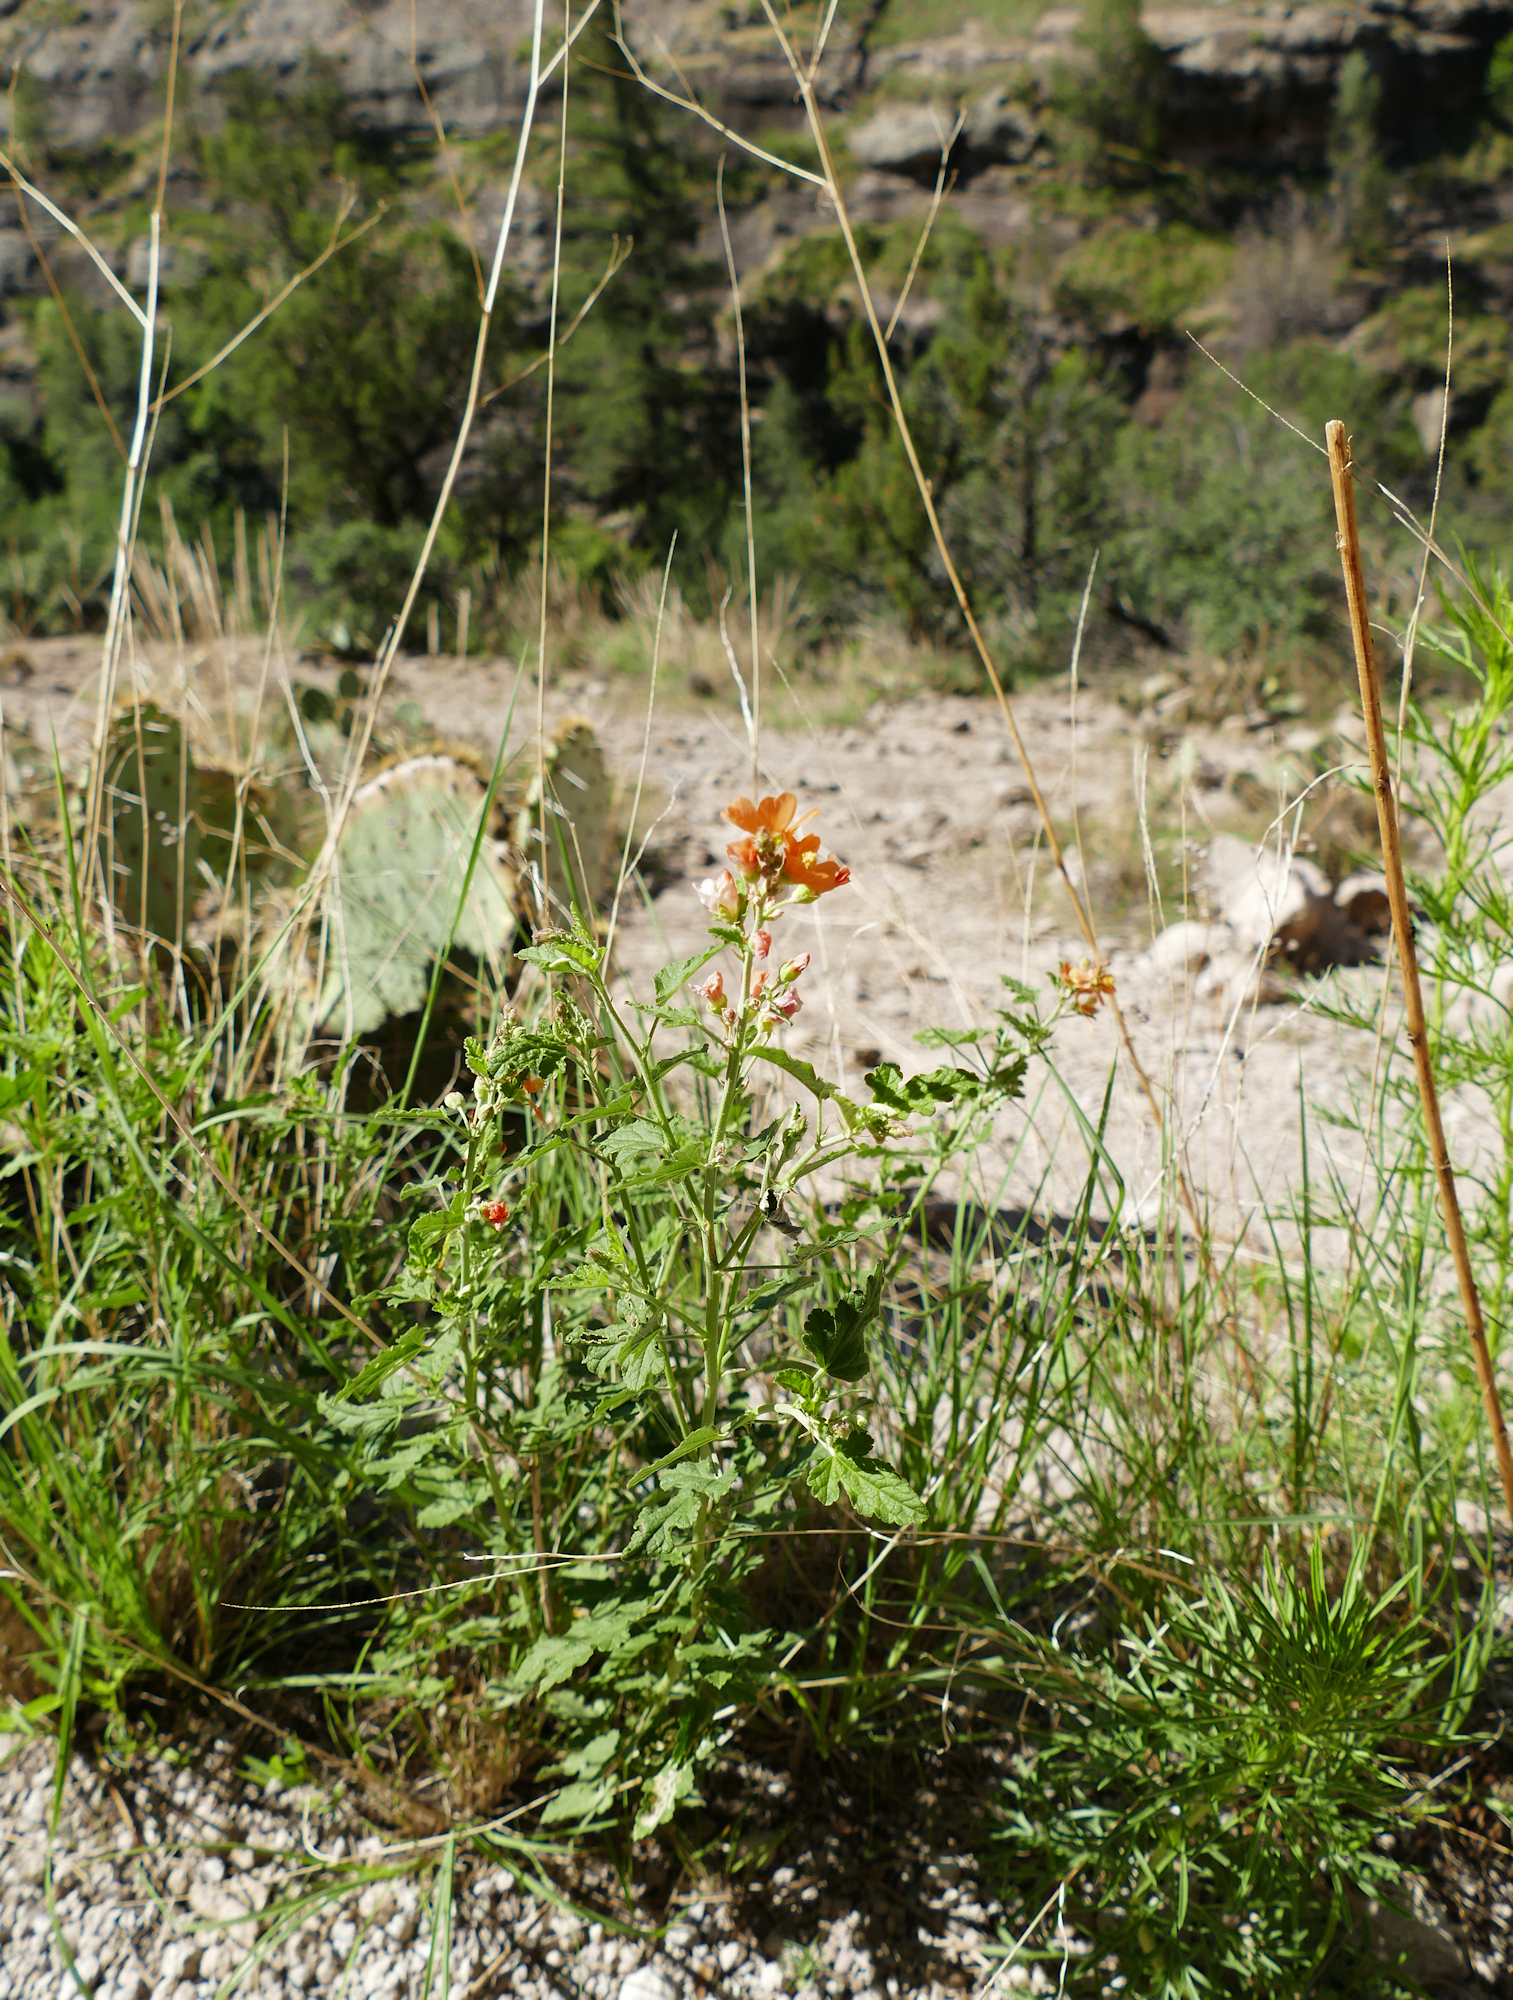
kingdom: Plantae
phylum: Tracheophyta
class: Magnoliopsida
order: Malvales
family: Malvaceae
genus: Sphaeralcea
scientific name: Sphaeralcea fendleri
